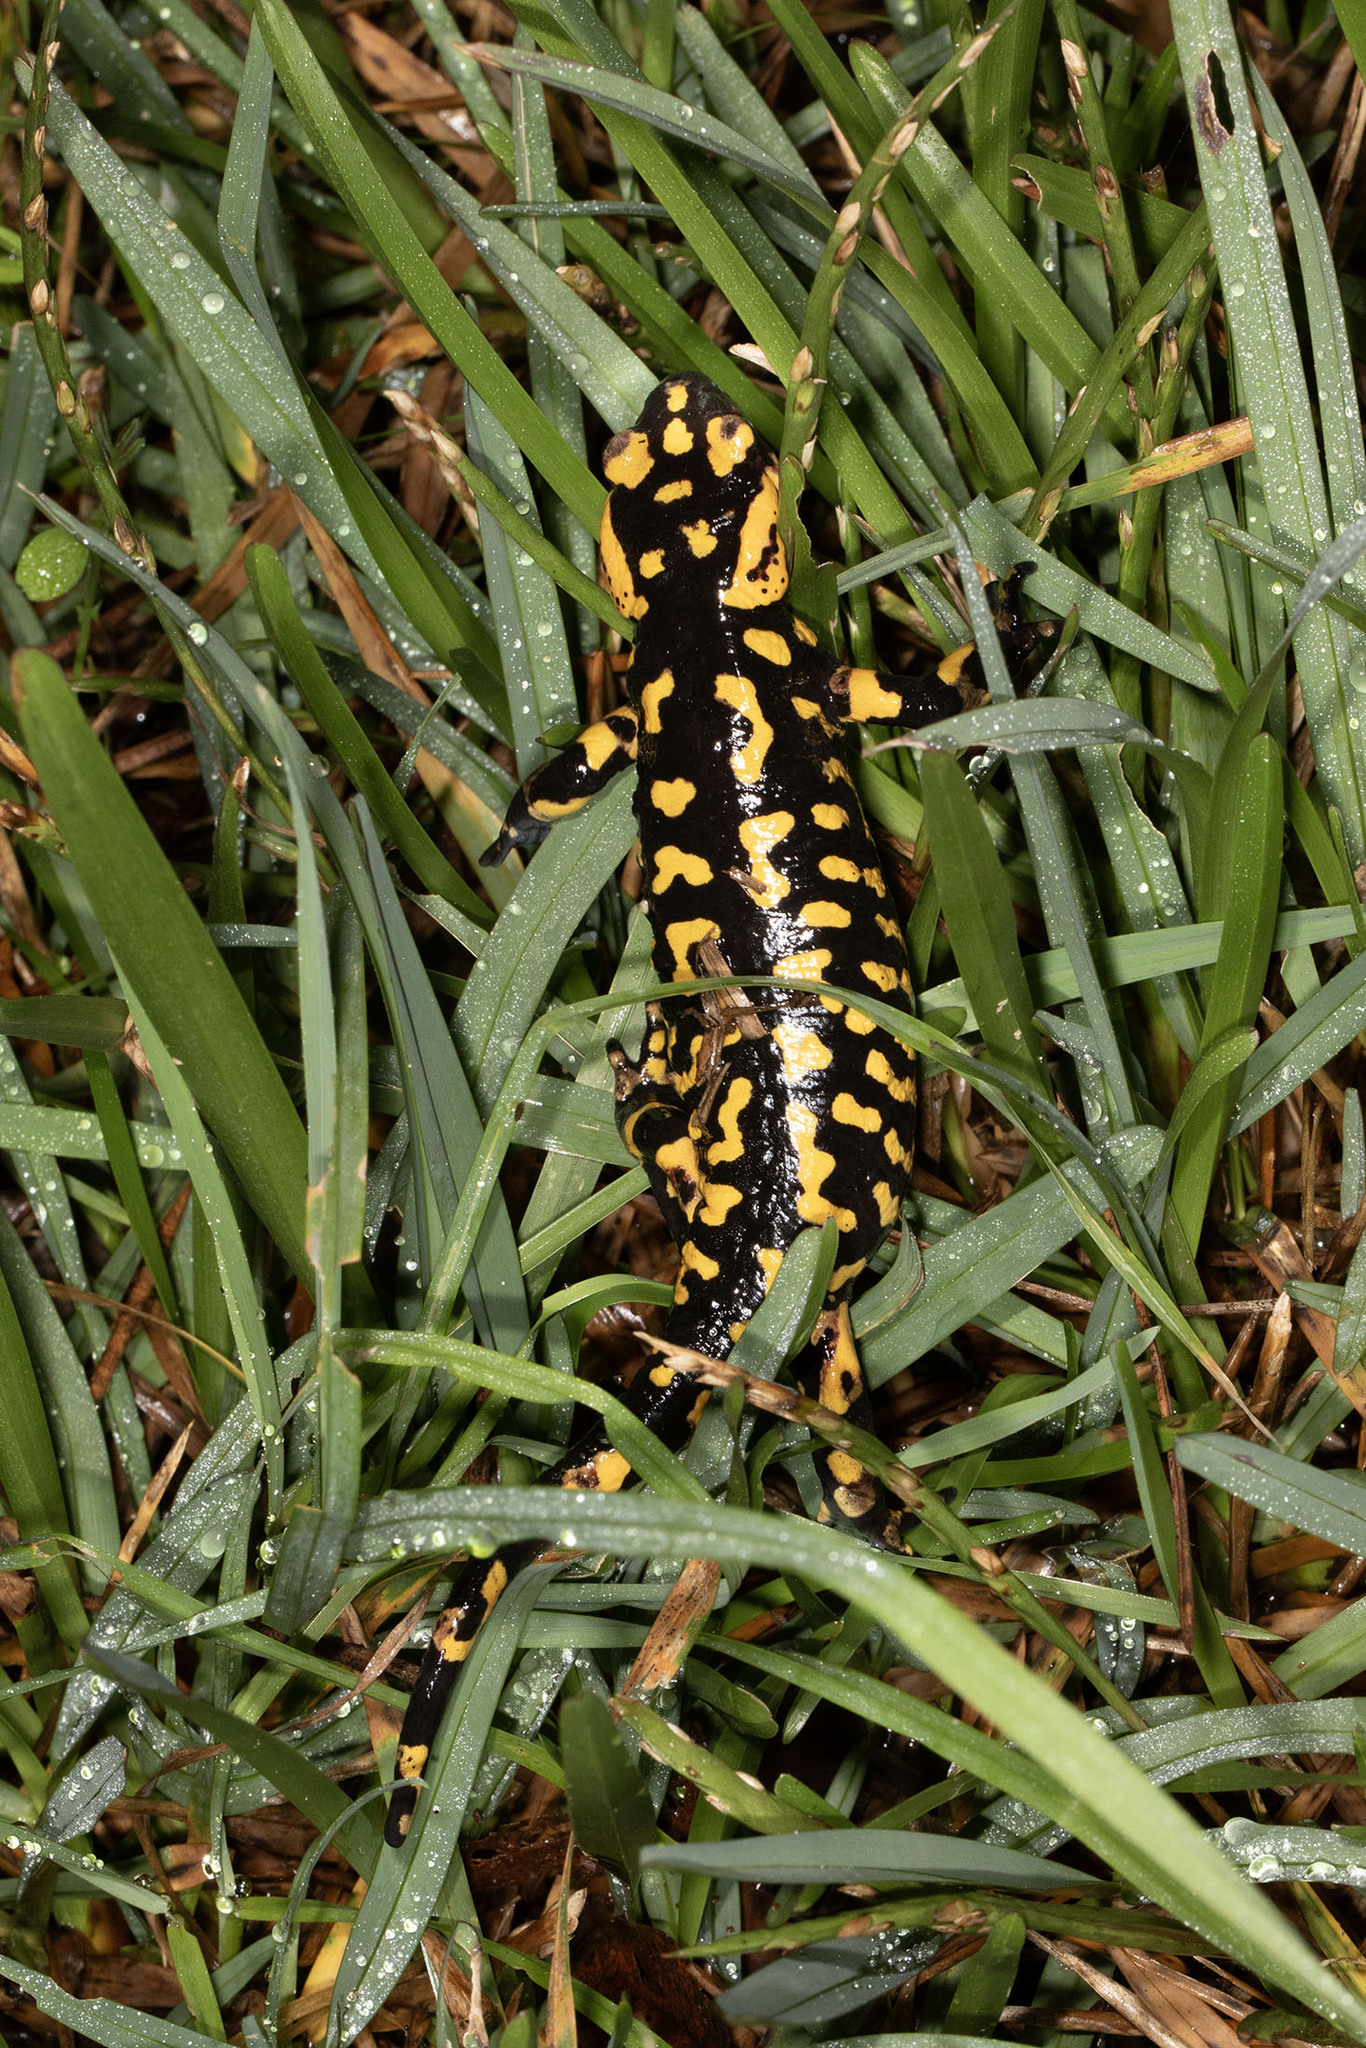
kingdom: Animalia
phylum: Chordata
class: Amphibia
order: Caudata
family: Salamandridae
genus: Salamandra
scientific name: Salamandra salamandra
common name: Fire salamander
